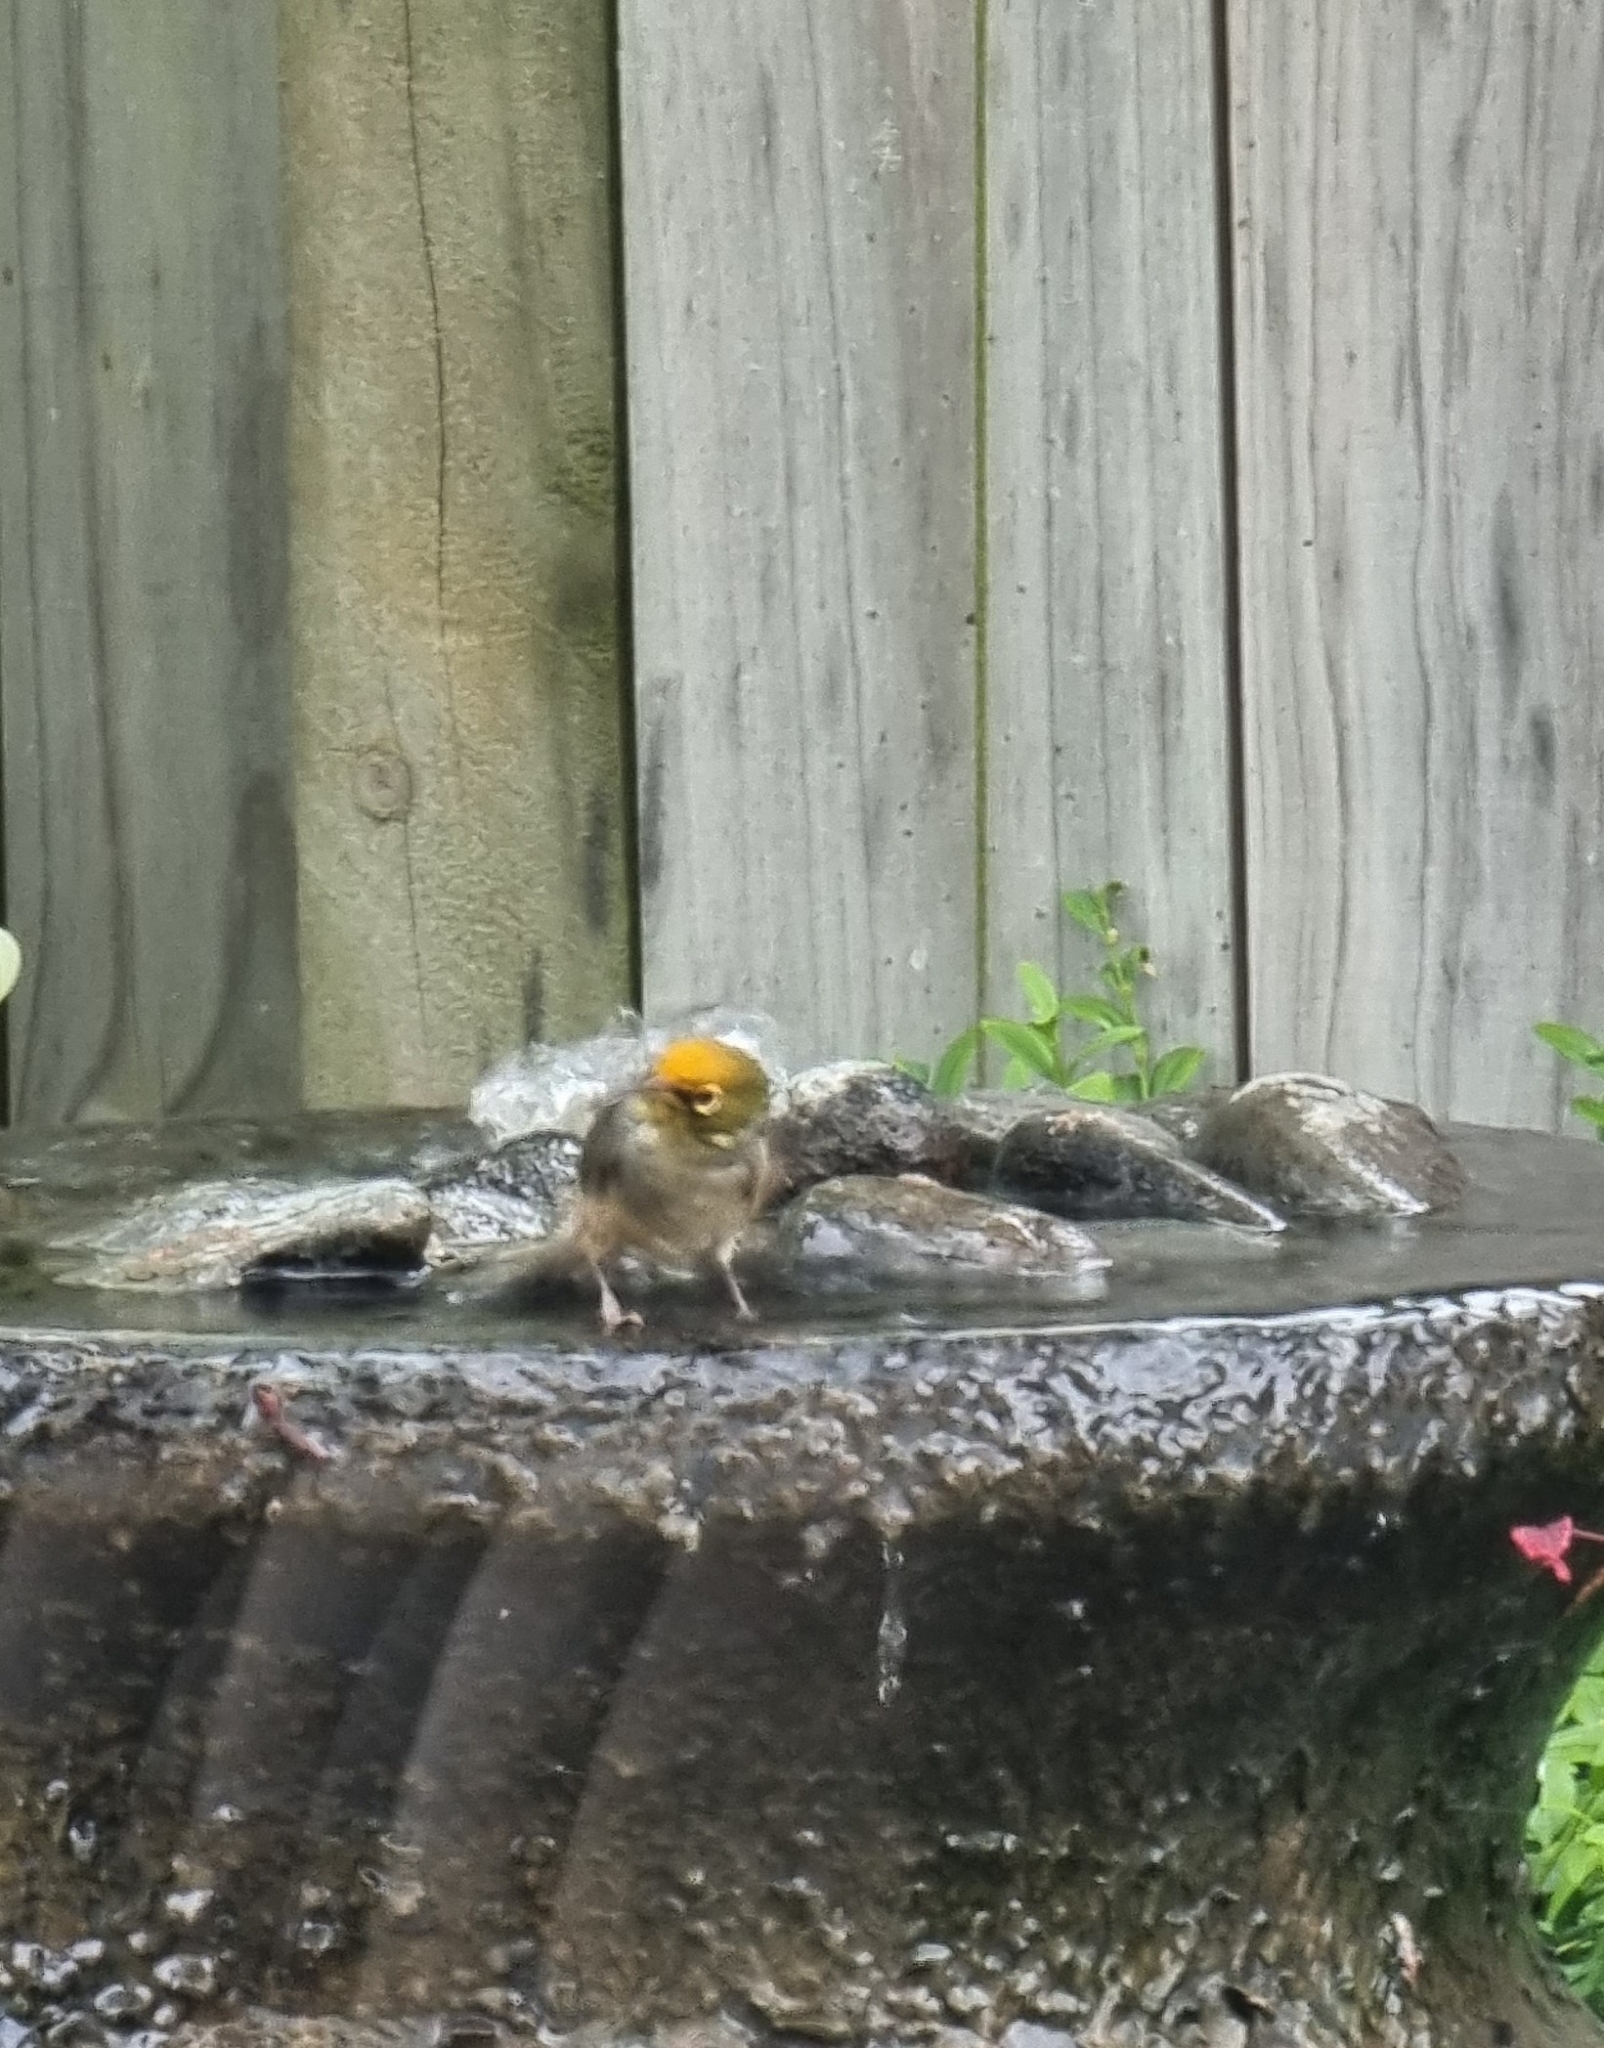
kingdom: Animalia
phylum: Chordata
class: Aves
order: Passeriformes
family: Zosteropidae
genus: Zosterops
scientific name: Zosterops lateralis
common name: Silvereye
